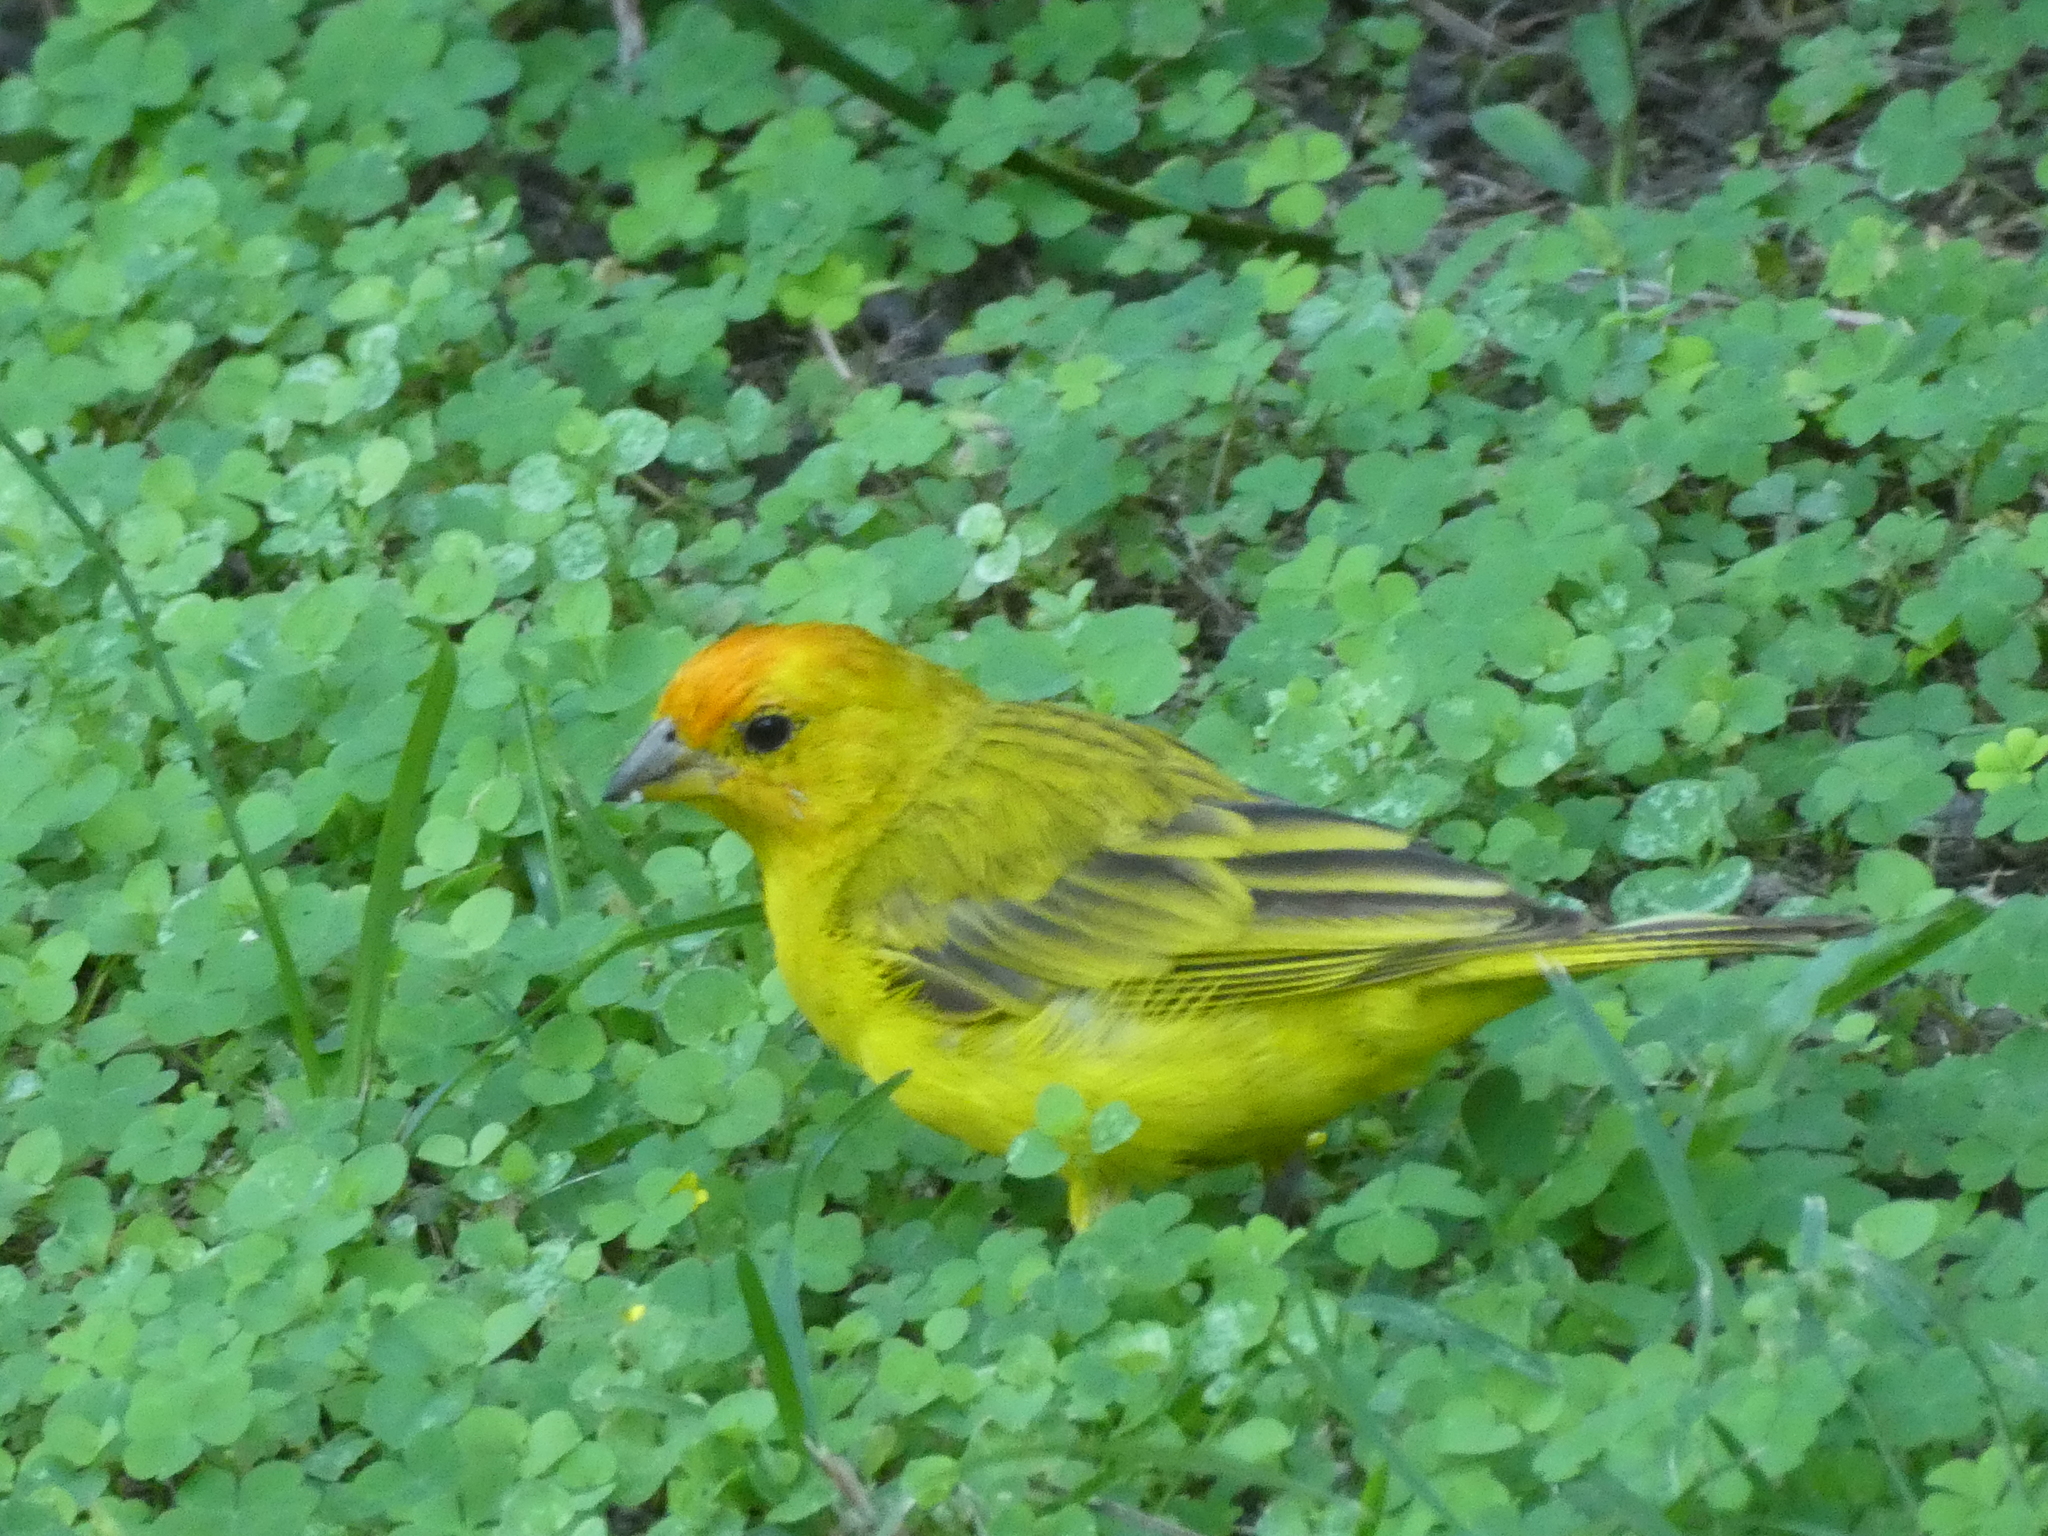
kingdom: Animalia
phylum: Chordata
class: Aves
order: Passeriformes
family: Thraupidae
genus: Sicalis
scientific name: Sicalis flaveola
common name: Saffron finch
